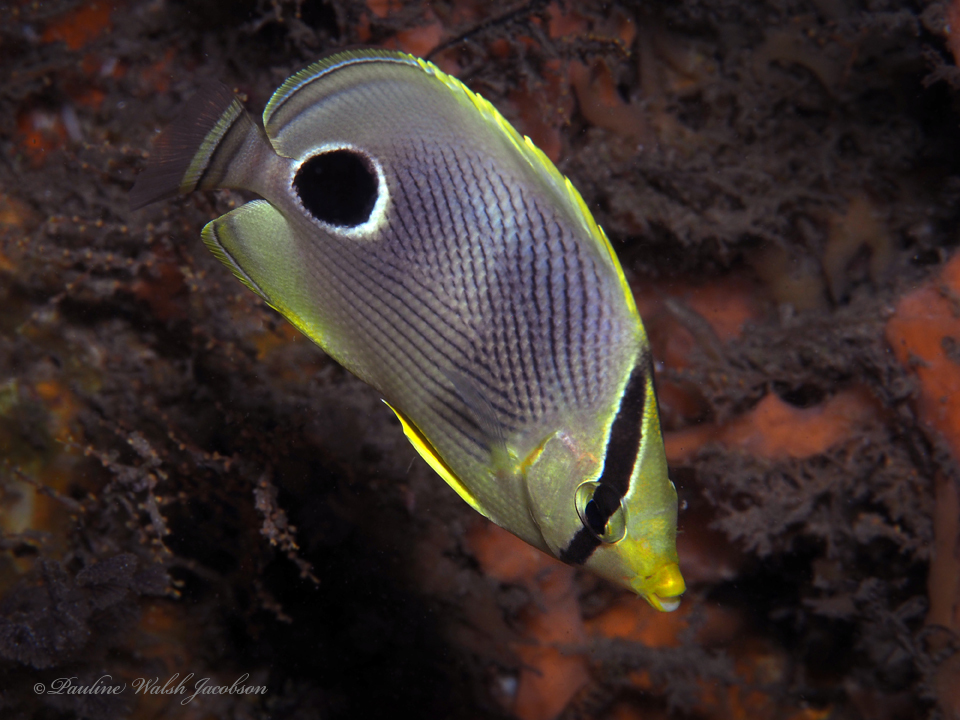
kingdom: Animalia
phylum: Chordata
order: Perciformes
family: Chaetodontidae
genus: Chaetodon
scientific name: Chaetodon capistratus
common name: Kete
